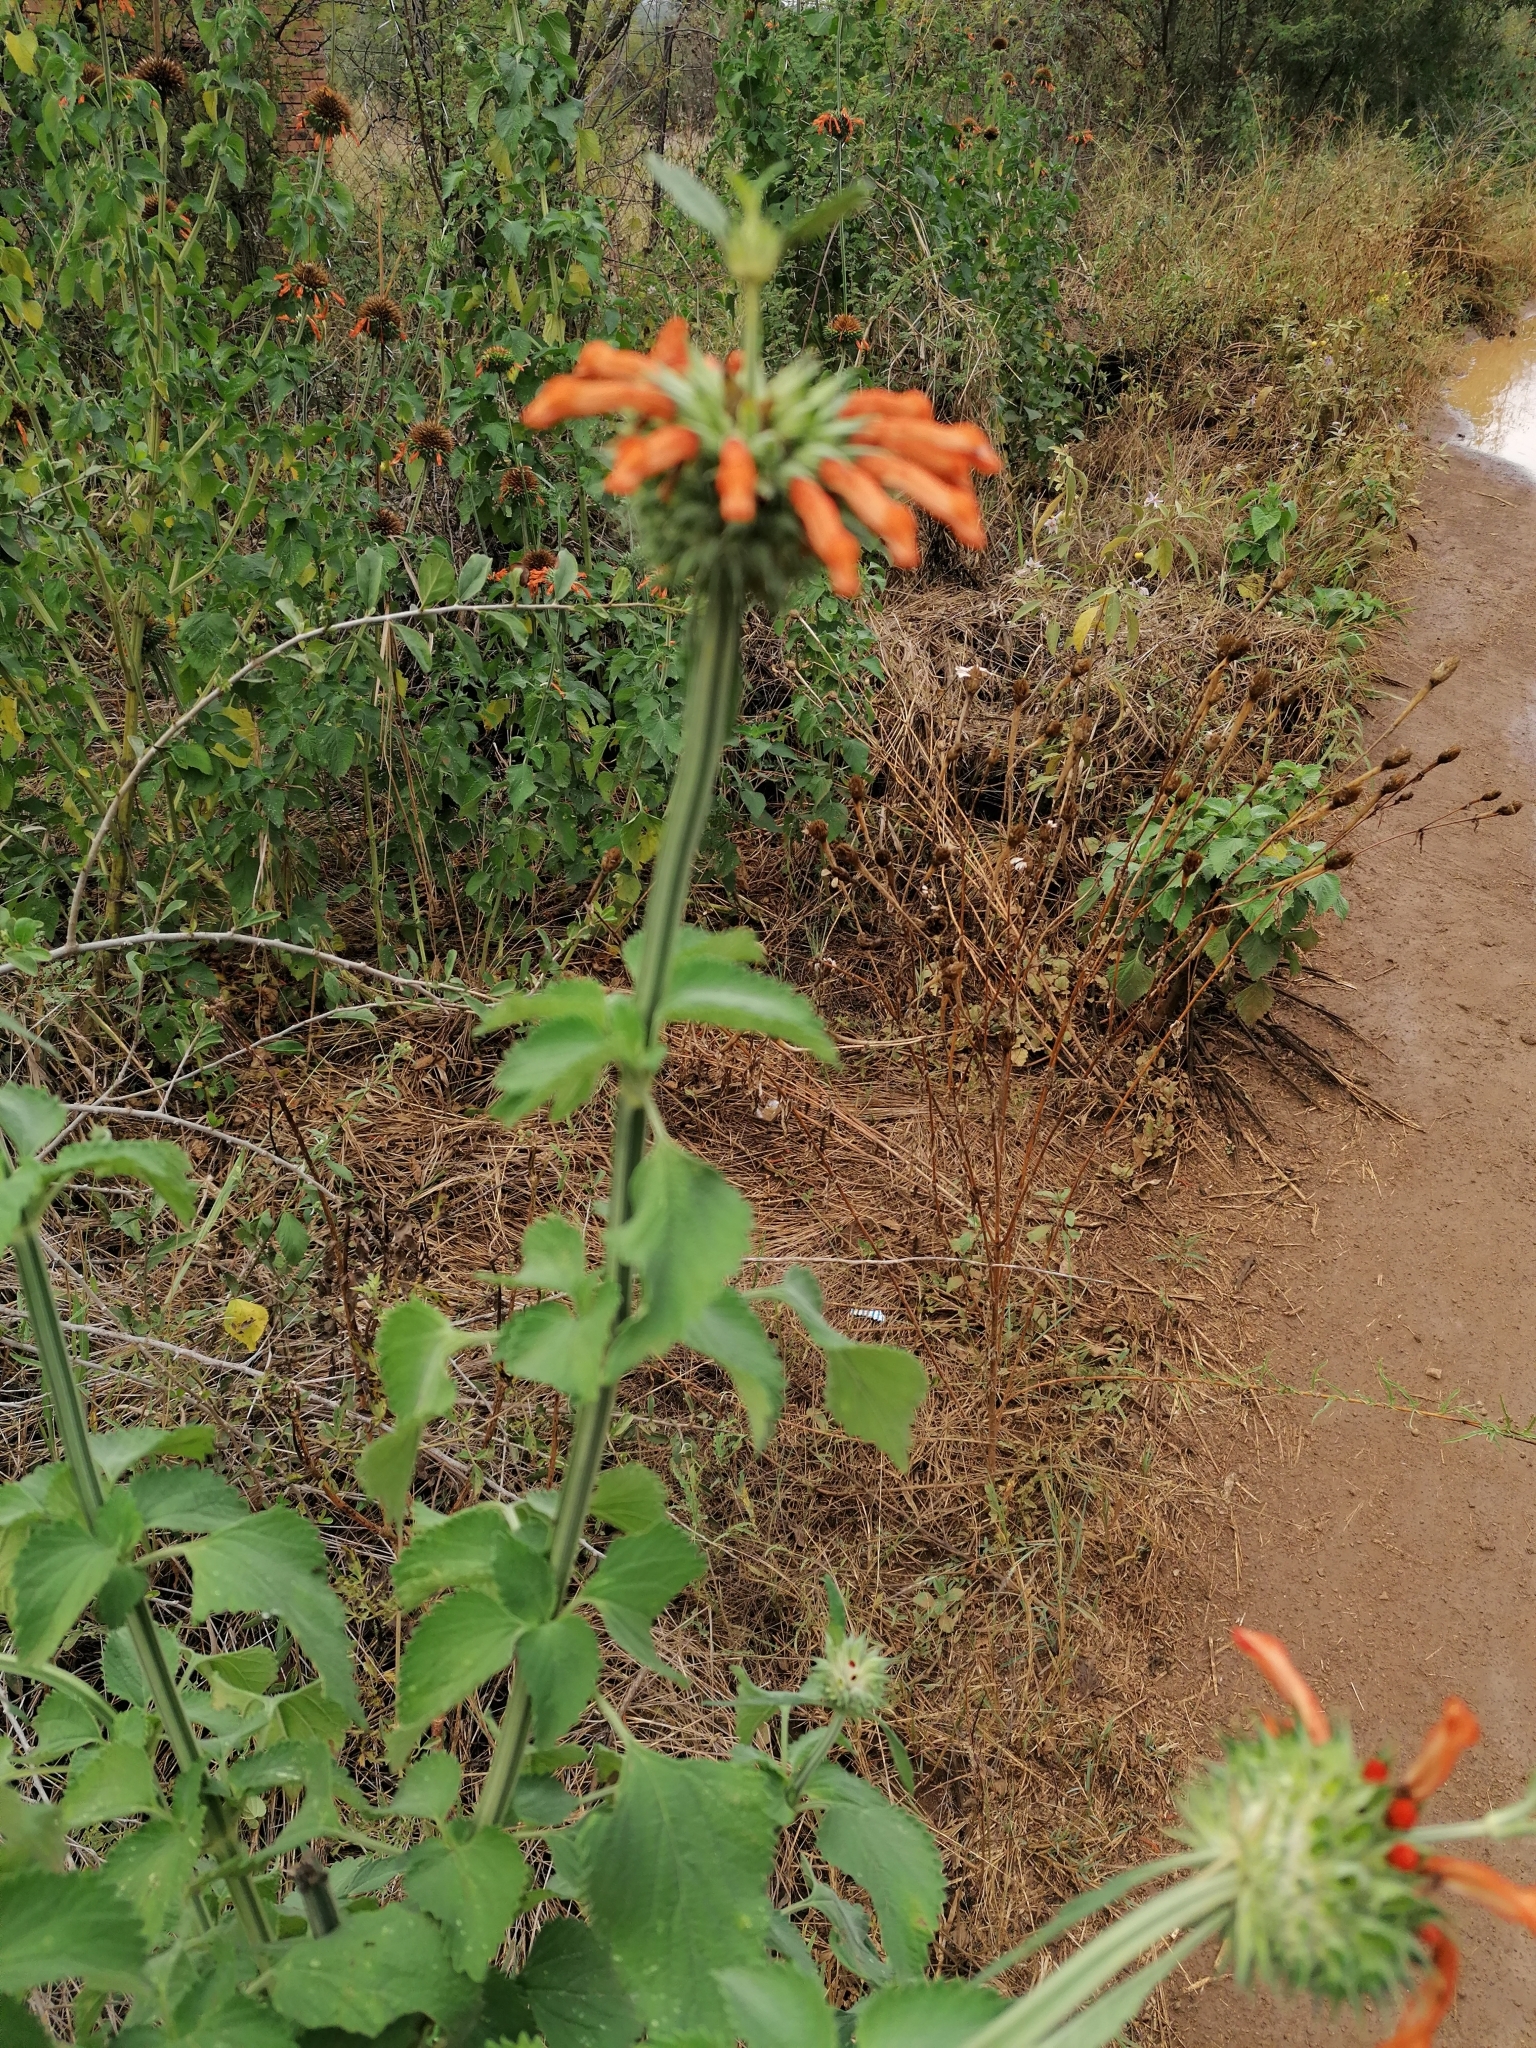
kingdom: Plantae
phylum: Tracheophyta
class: Magnoliopsida
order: Lamiales
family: Lamiaceae
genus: Leonotis
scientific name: Leonotis nepetifolia
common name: Christmas candlestick
